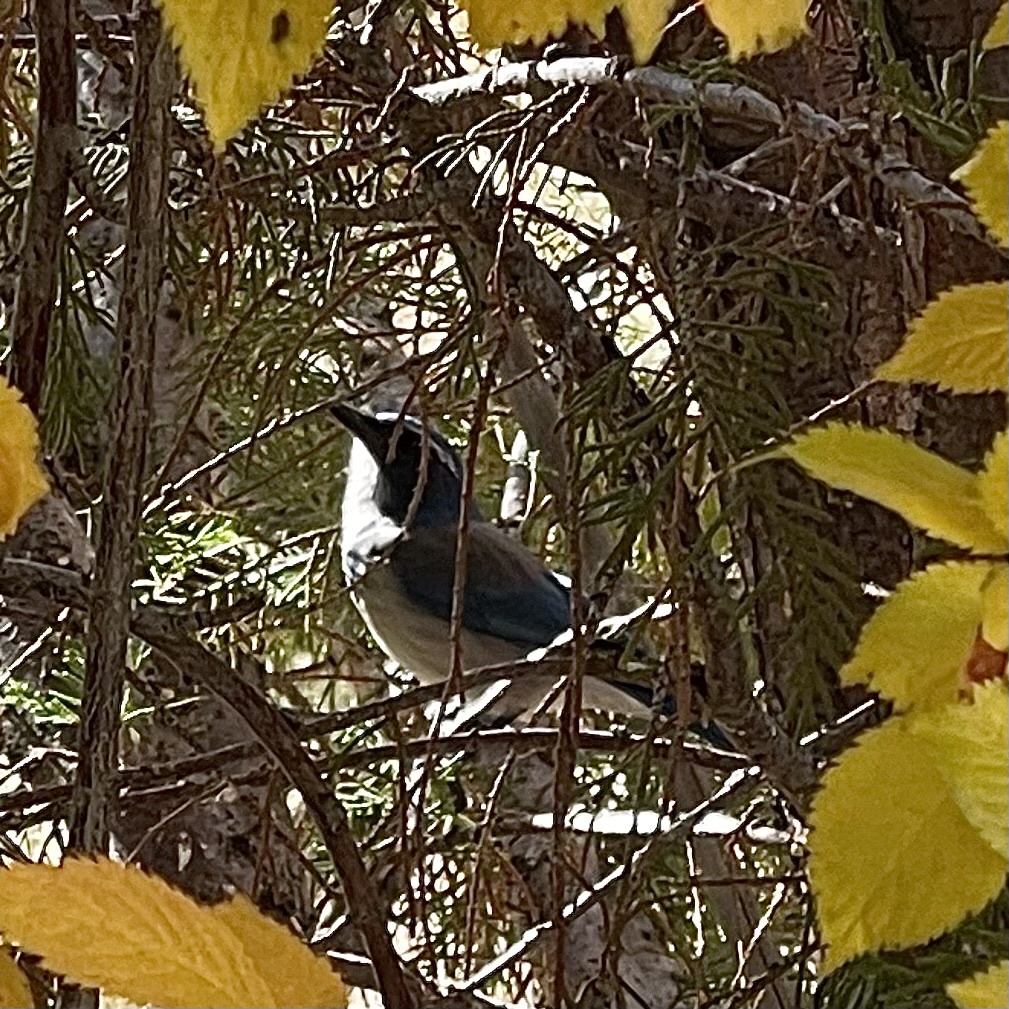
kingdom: Animalia
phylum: Chordata
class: Aves
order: Passeriformes
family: Corvidae
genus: Aphelocoma
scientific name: Aphelocoma californica
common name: California scrub-jay
